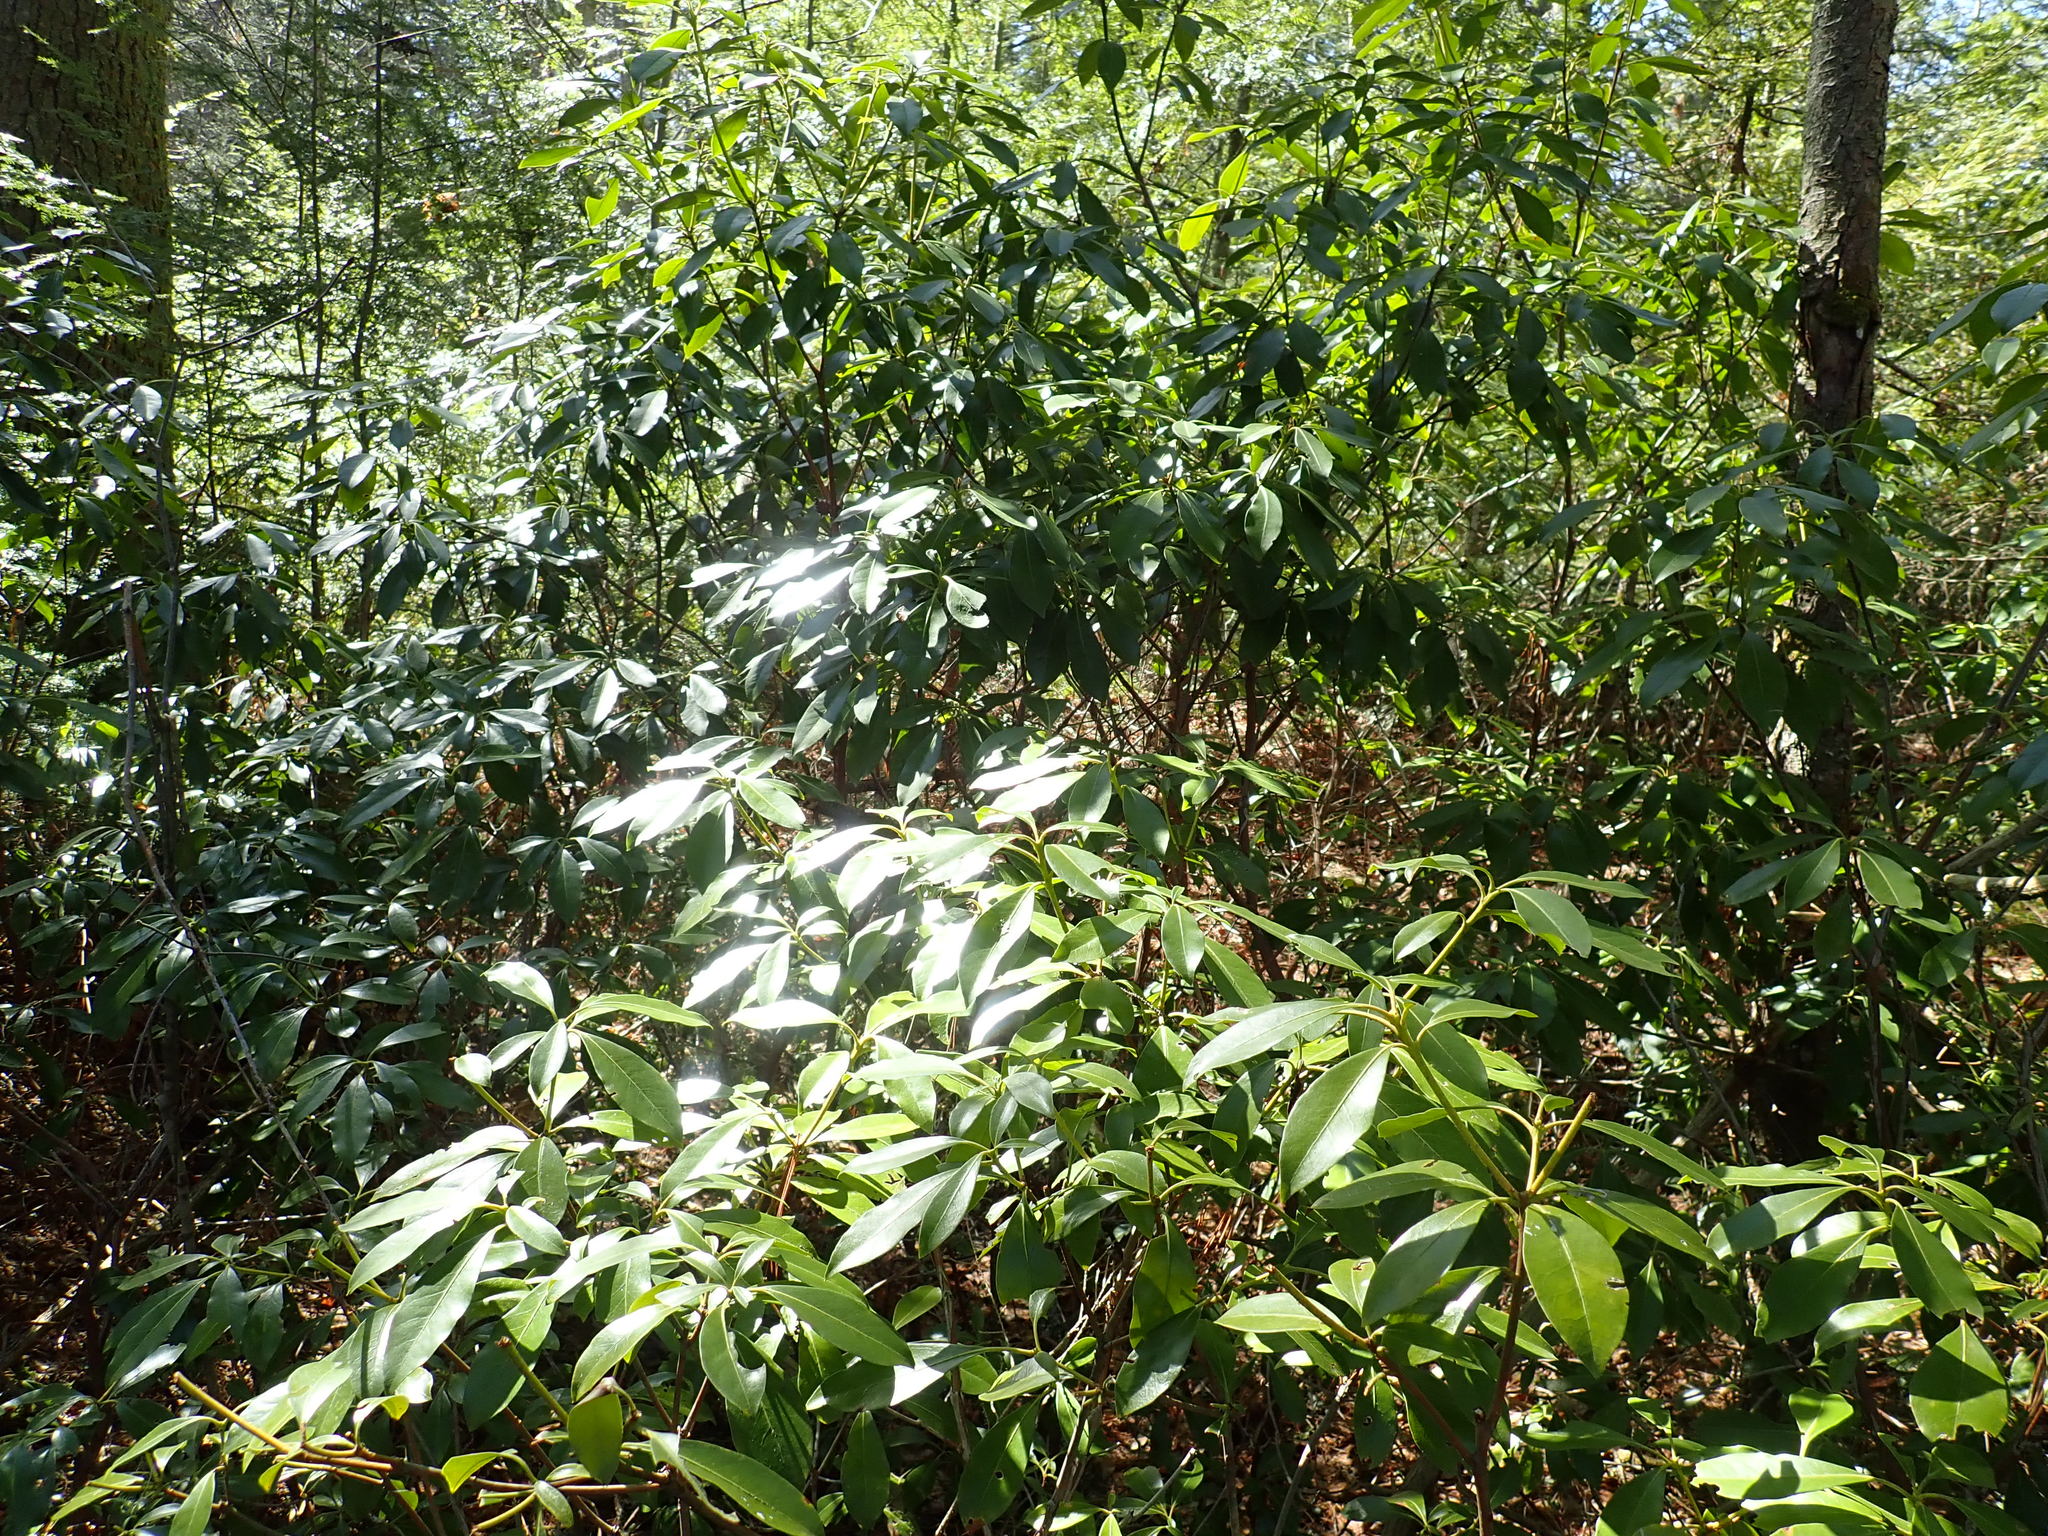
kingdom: Plantae
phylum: Tracheophyta
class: Magnoliopsida
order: Ericales
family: Ericaceae
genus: Kalmia
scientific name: Kalmia latifolia
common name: Mountain-laurel
